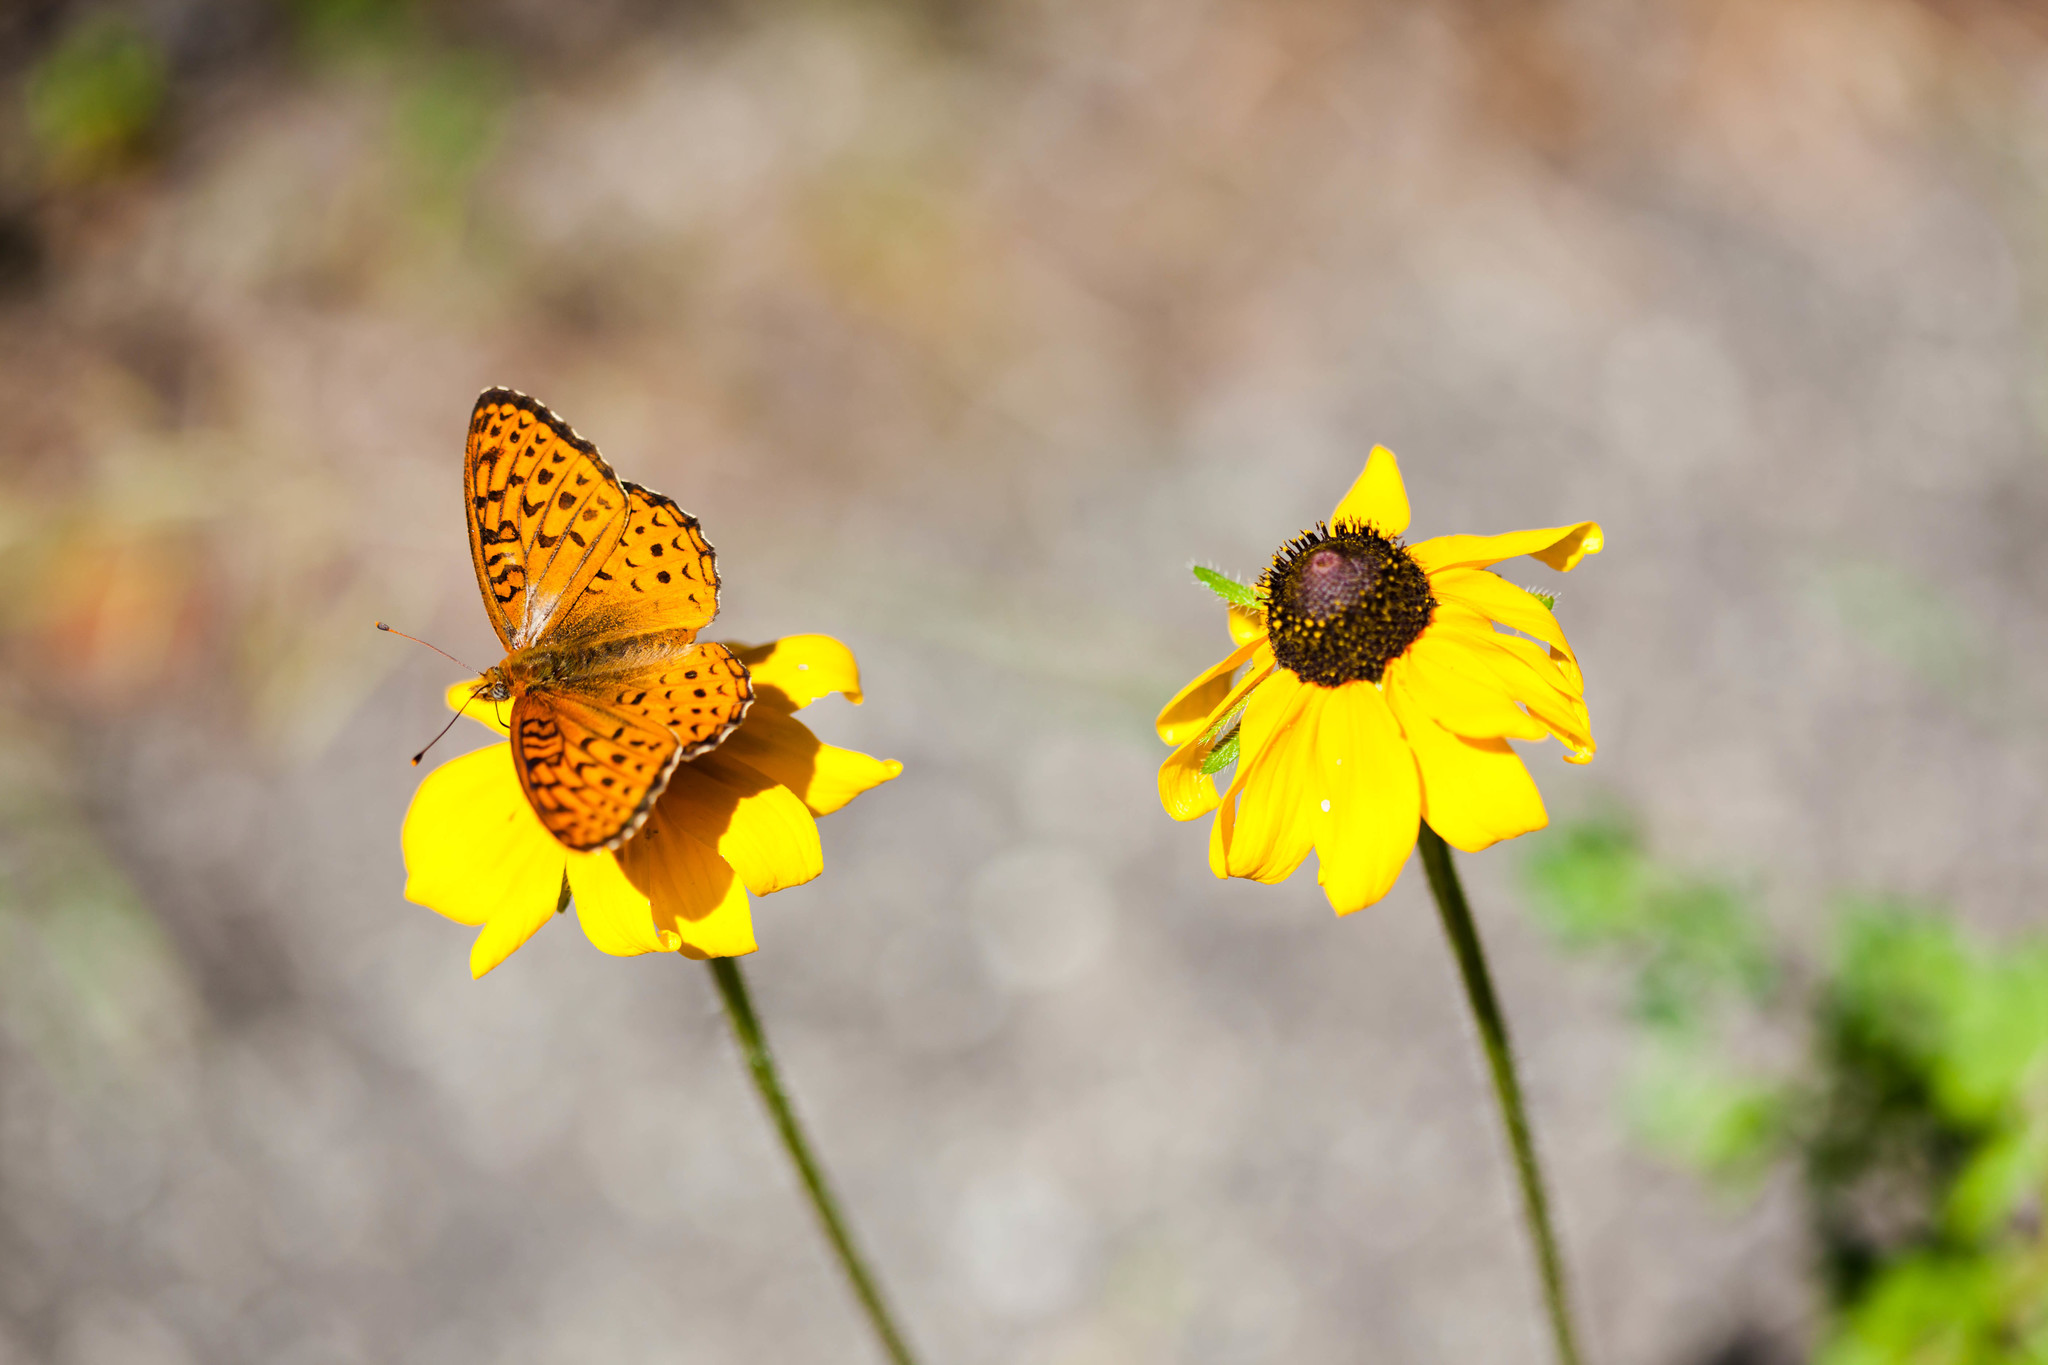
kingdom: Animalia
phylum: Arthropoda
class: Insecta
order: Lepidoptera
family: Nymphalidae
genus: Speyeria
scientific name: Speyeria atlantis
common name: Atlantis fritillary
